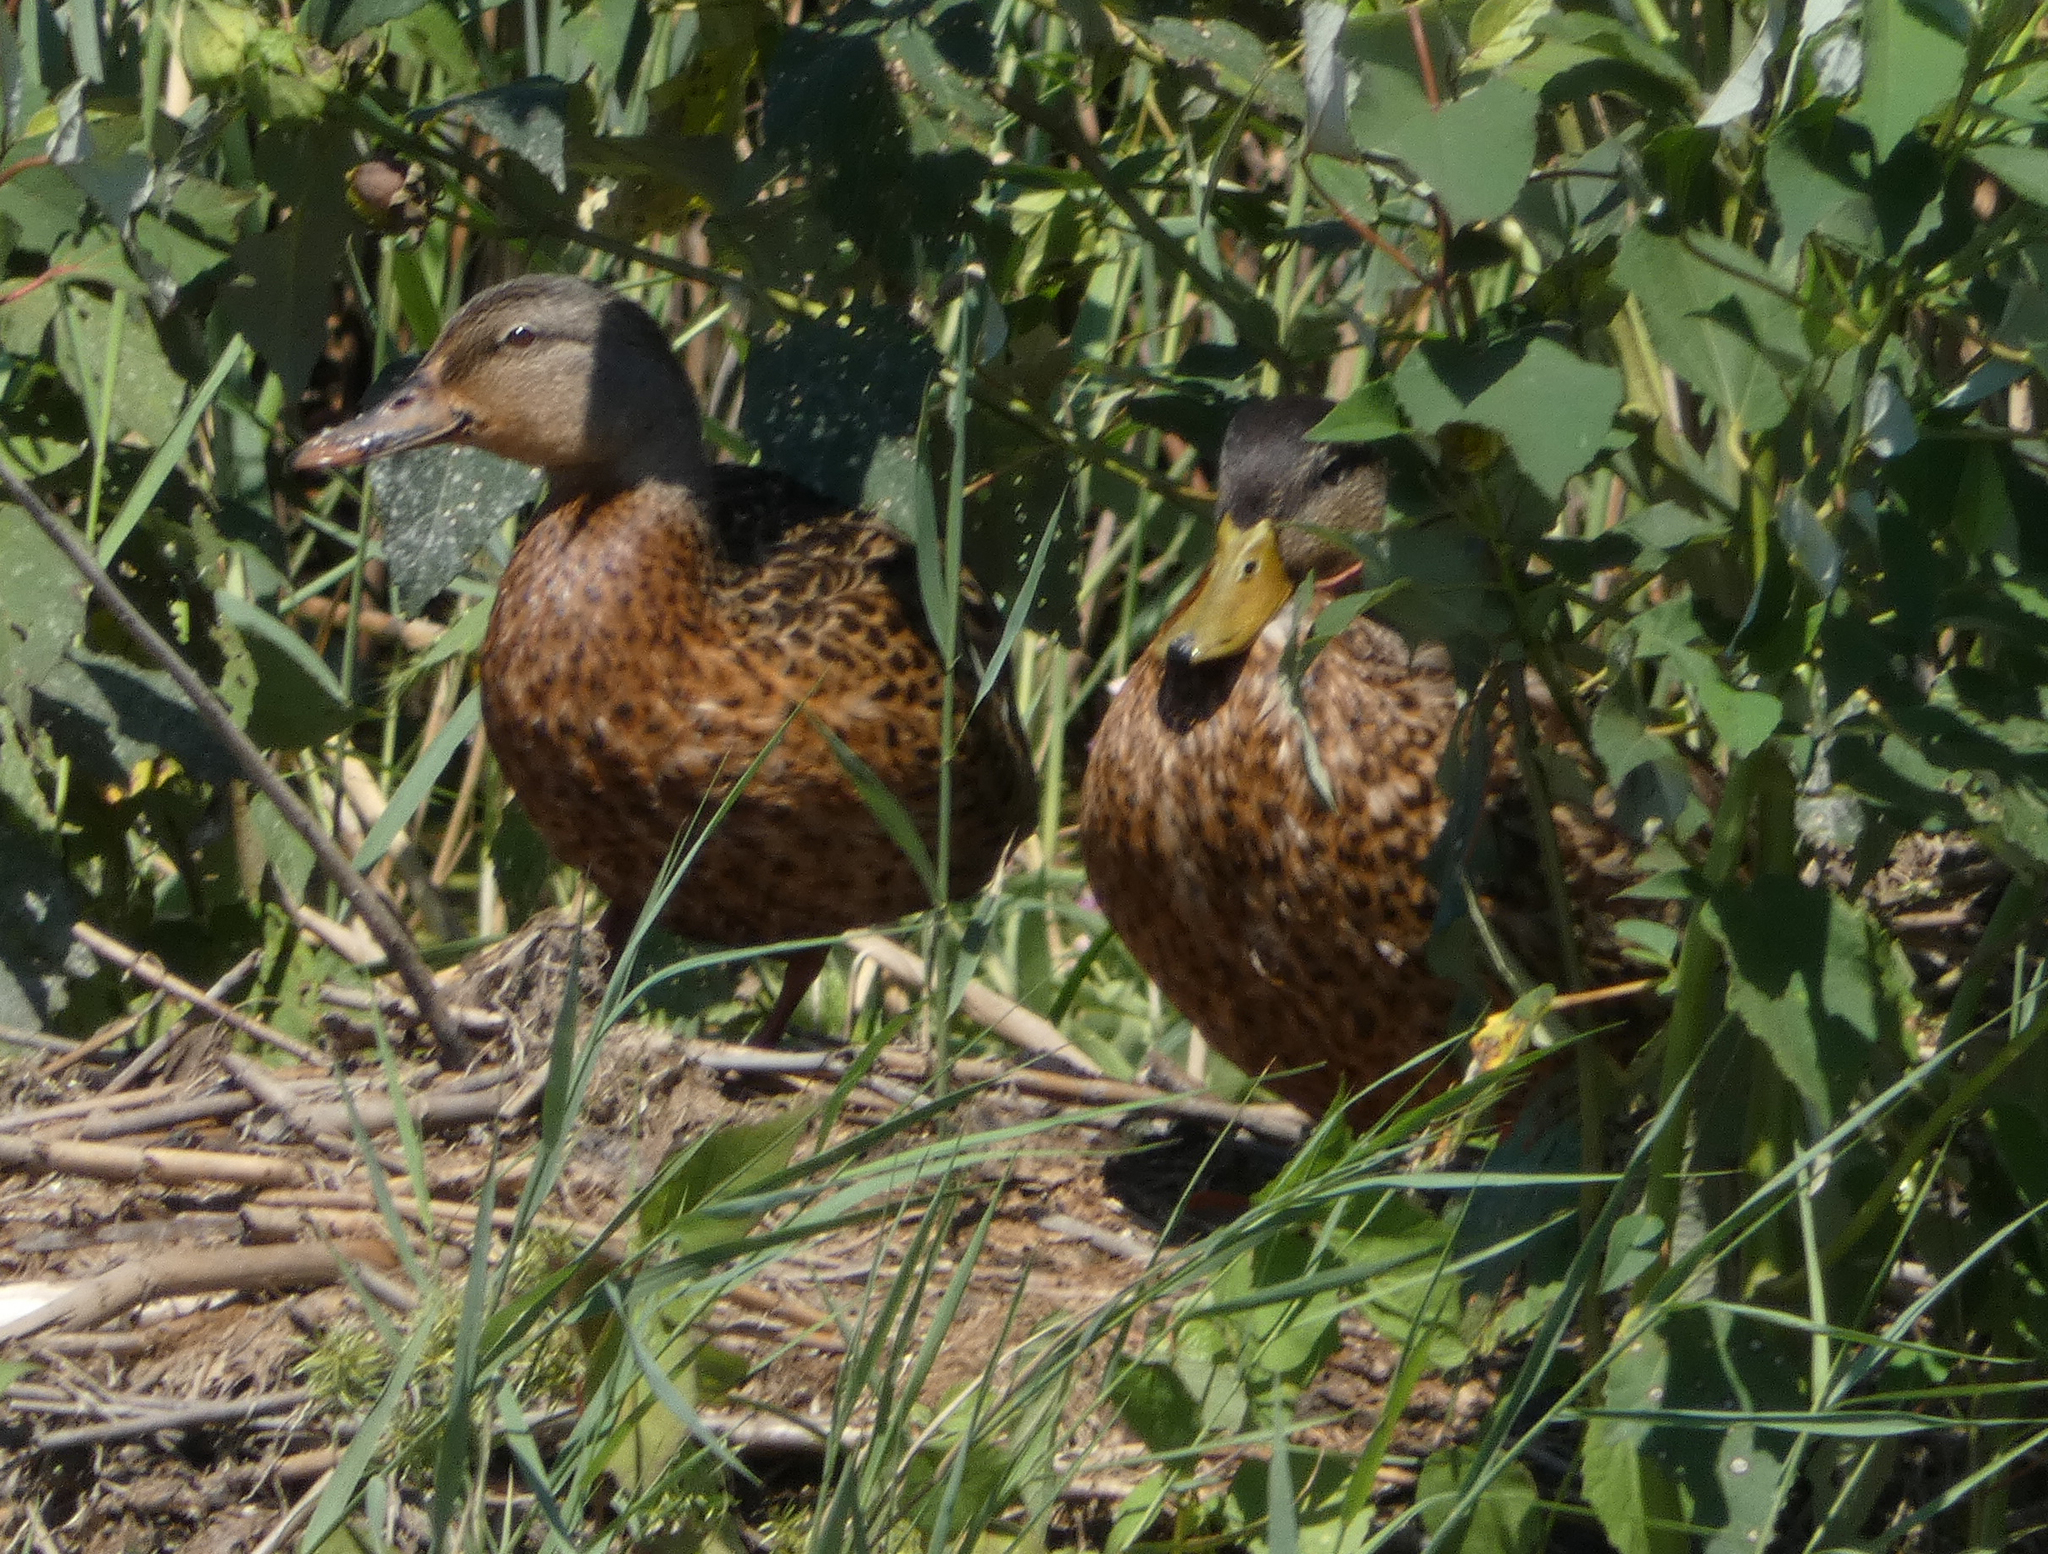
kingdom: Animalia
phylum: Chordata
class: Aves
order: Anseriformes
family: Anatidae
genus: Anas
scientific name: Anas platyrhynchos
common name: Mallard
